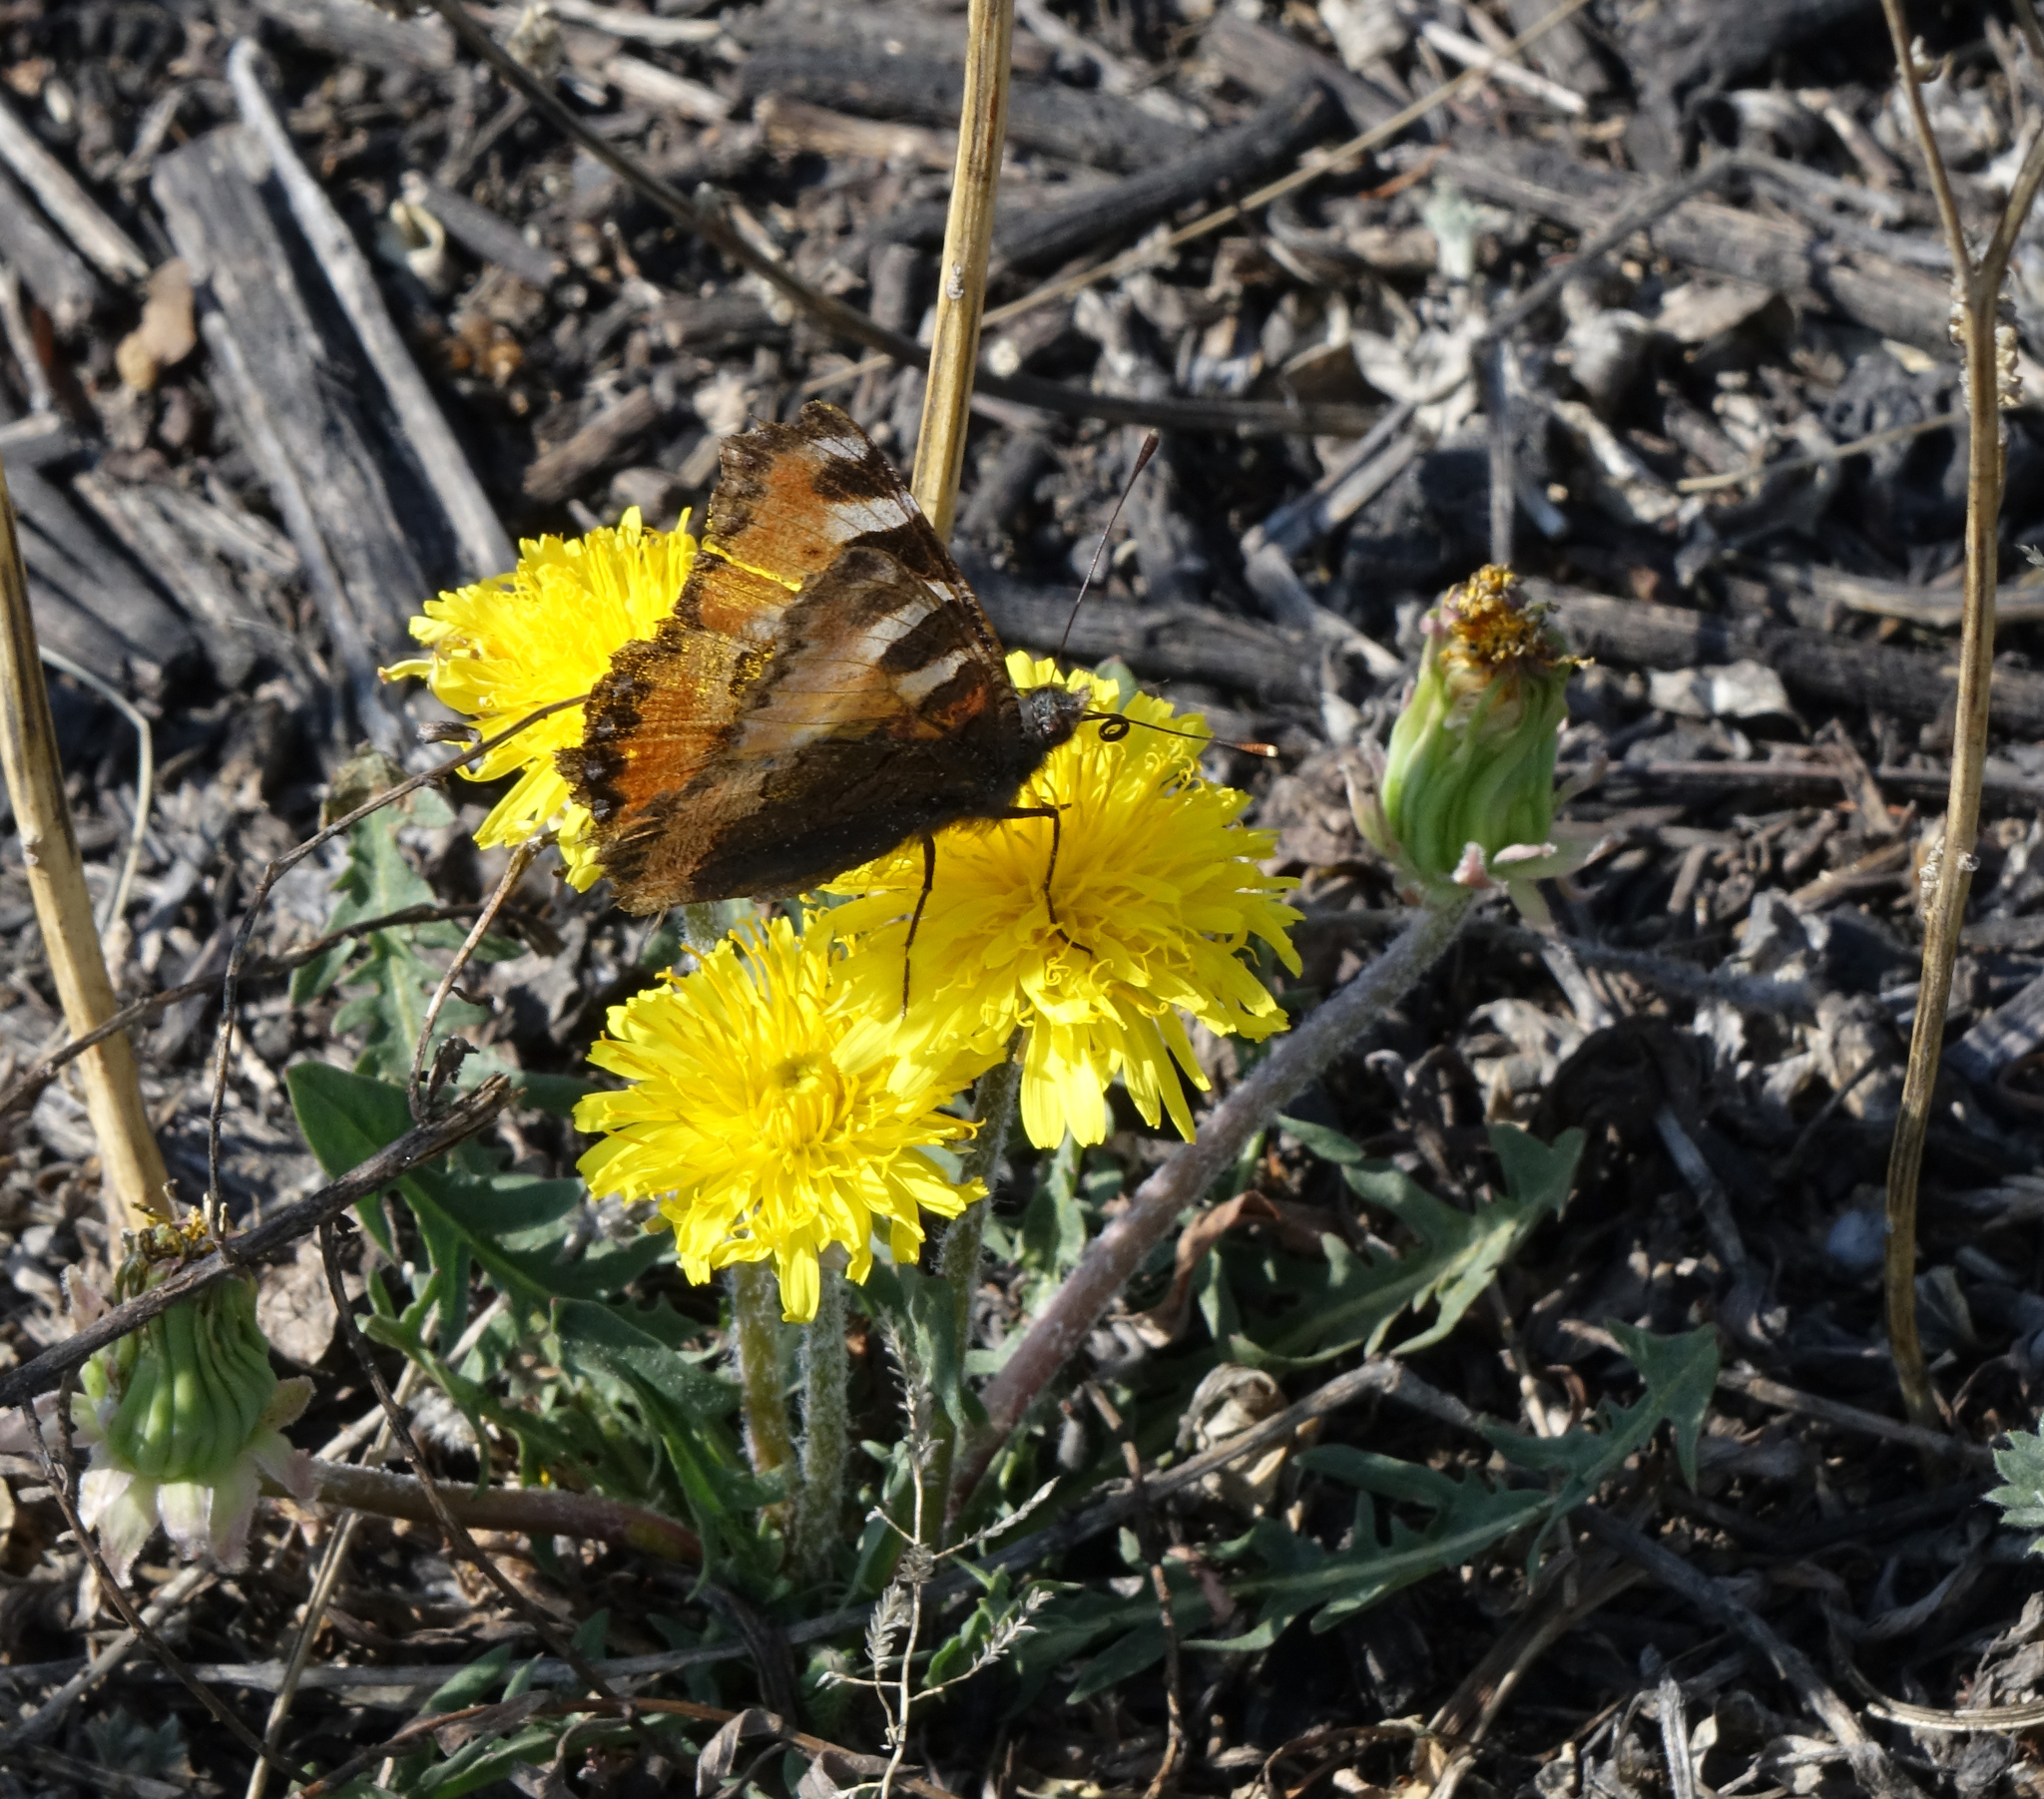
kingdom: Animalia
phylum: Arthropoda
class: Insecta
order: Lepidoptera
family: Nymphalidae
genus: Aglais
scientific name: Aglais urticae
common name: Small tortoiseshell
